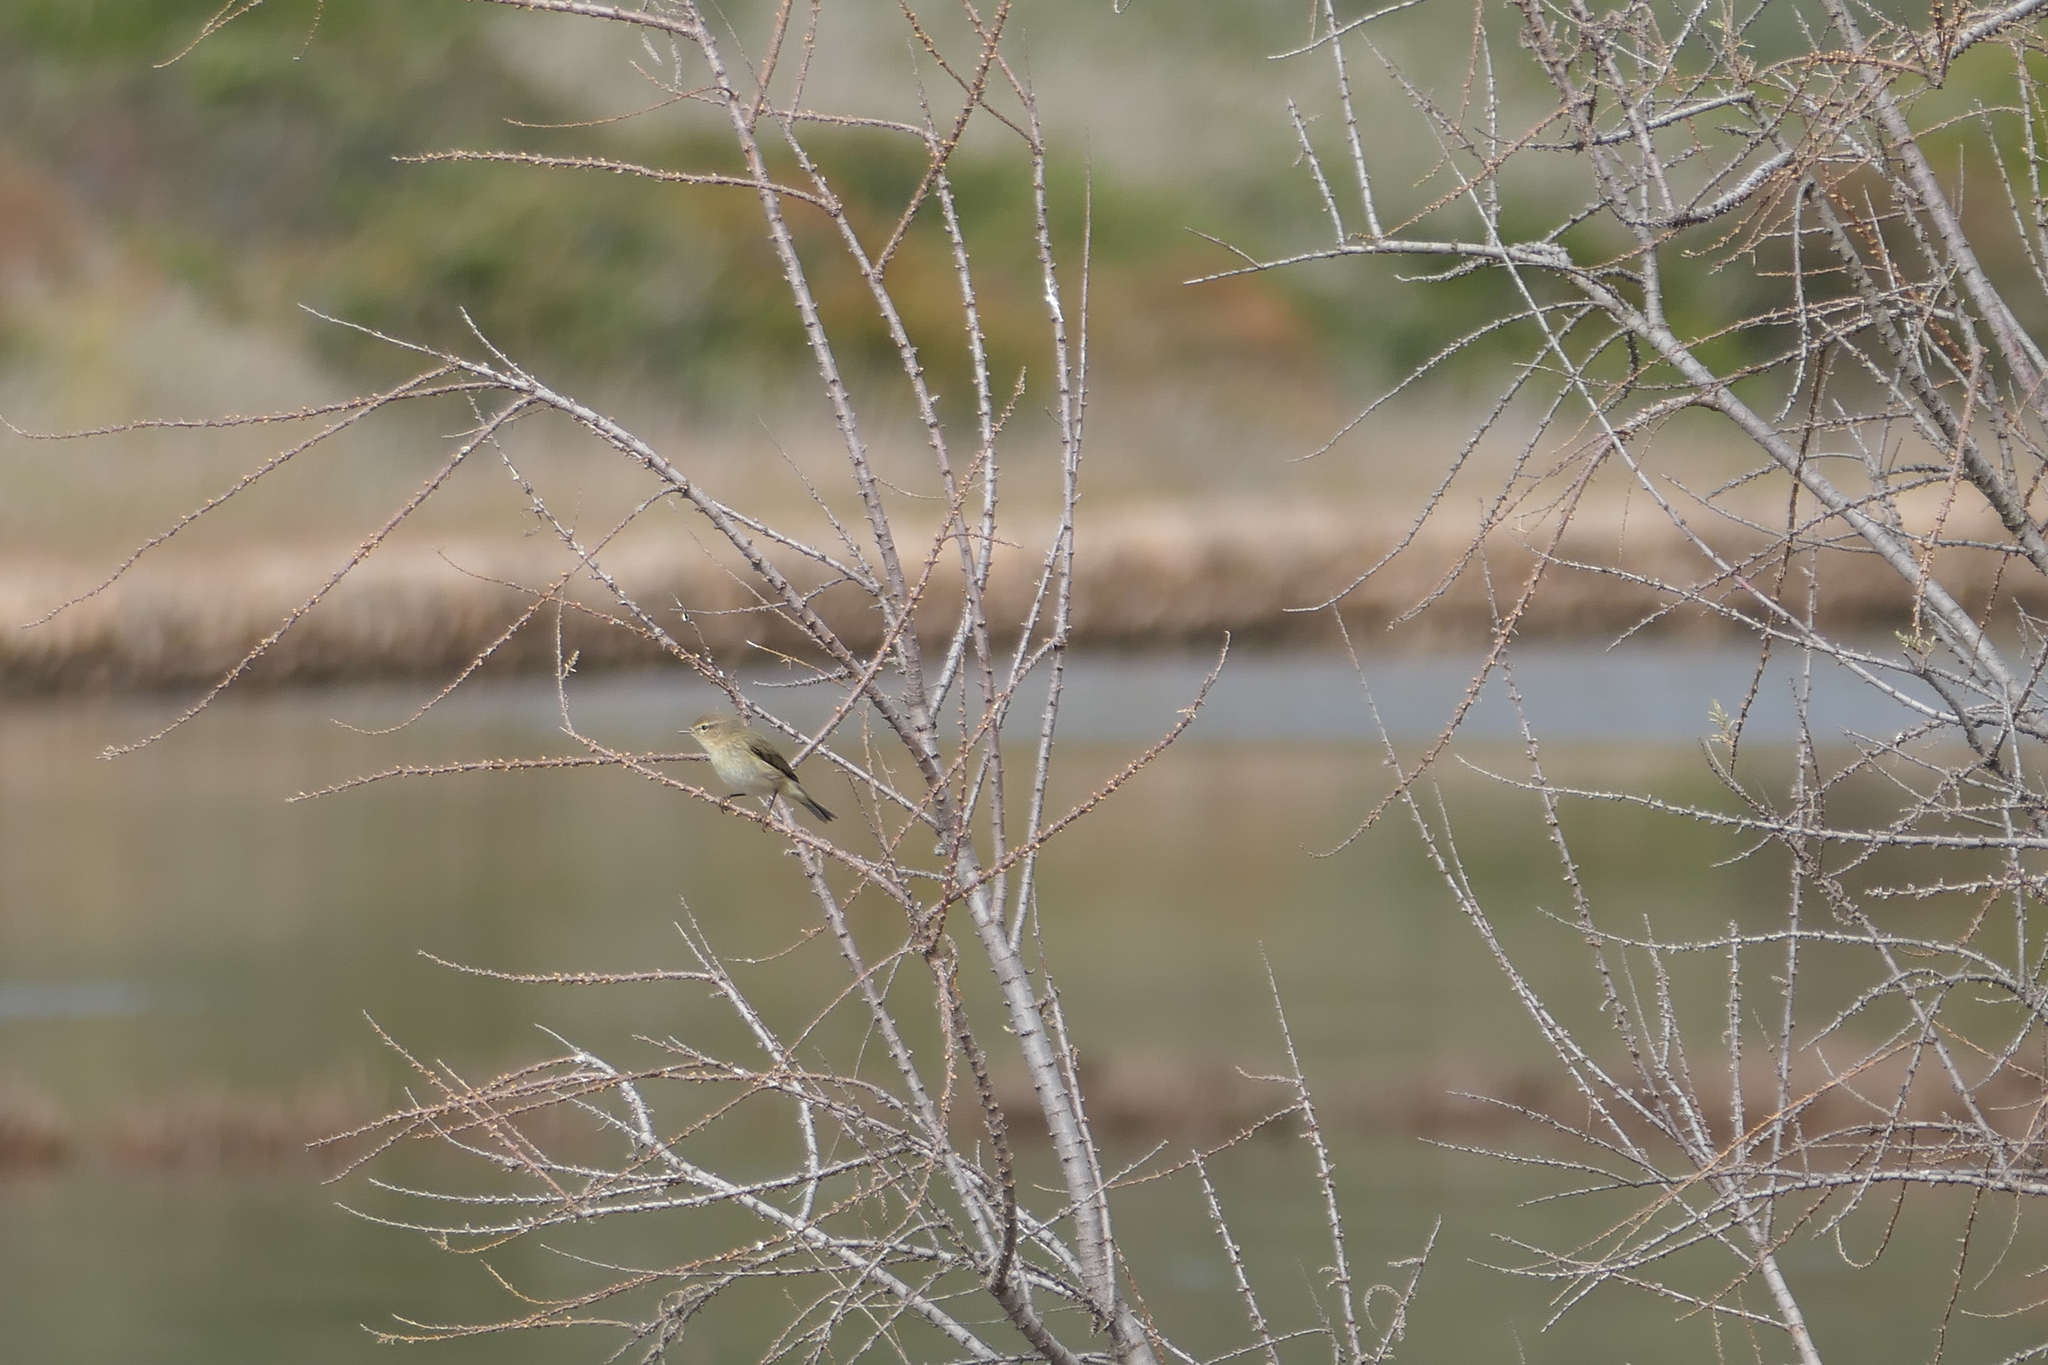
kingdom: Animalia
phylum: Chordata
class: Aves
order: Passeriformes
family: Phylloscopidae
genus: Phylloscopus
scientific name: Phylloscopus collybita
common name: Common chiffchaff
